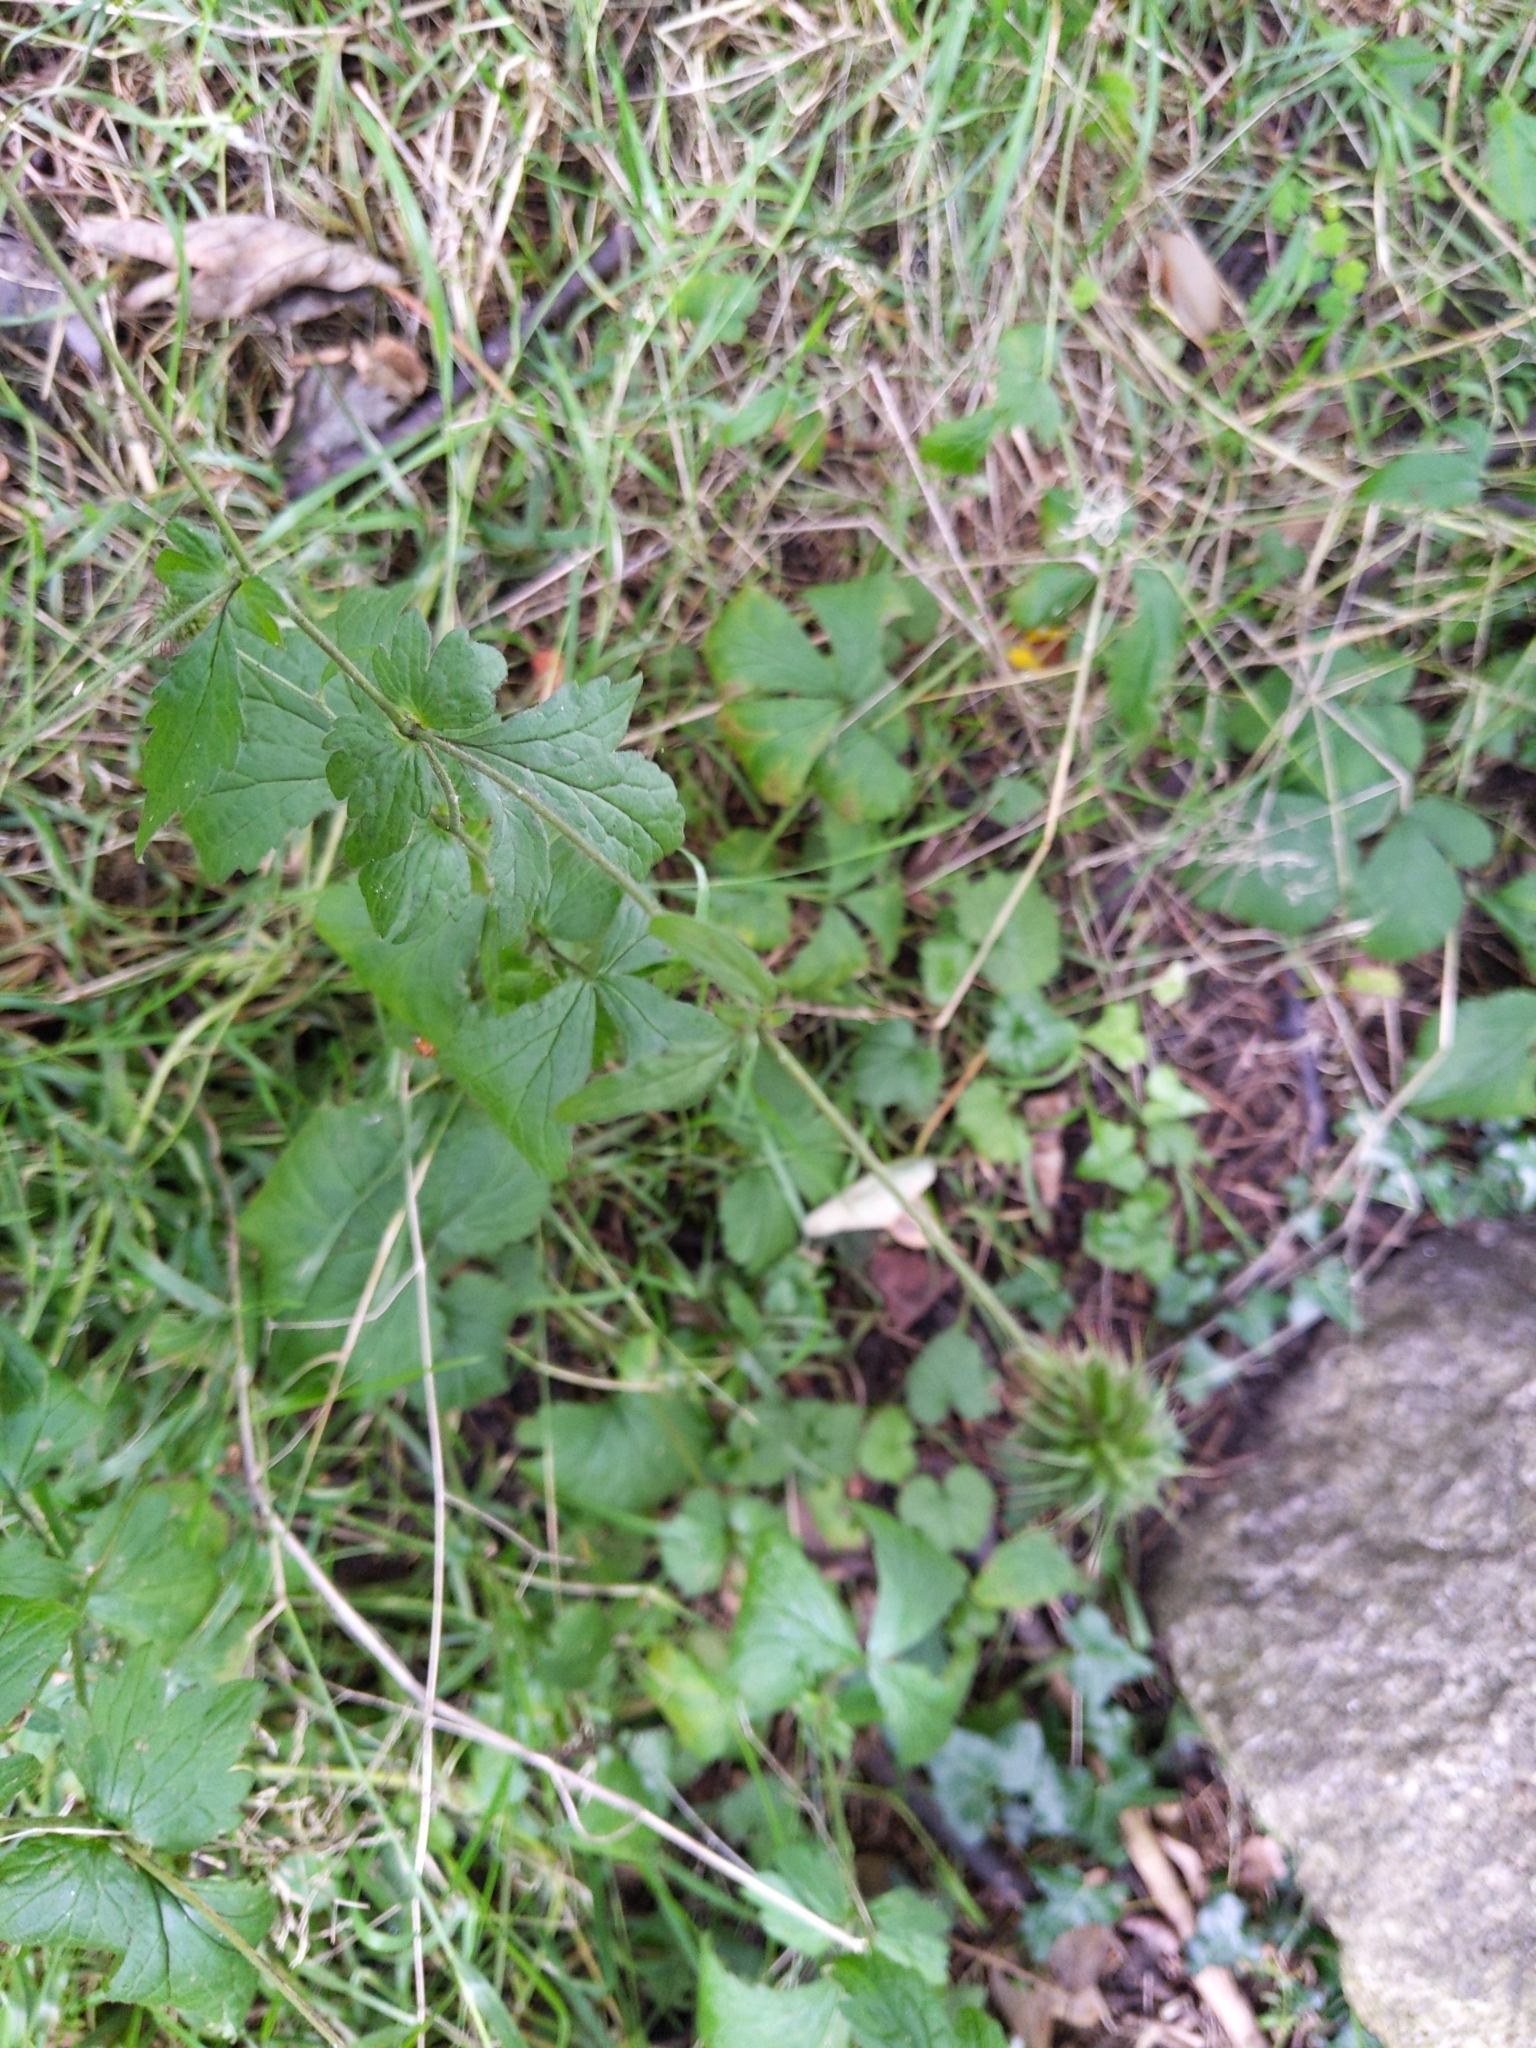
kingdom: Plantae
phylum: Tracheophyta
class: Magnoliopsida
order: Rosales
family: Rosaceae
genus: Geum
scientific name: Geum urbanum
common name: Wood avens
